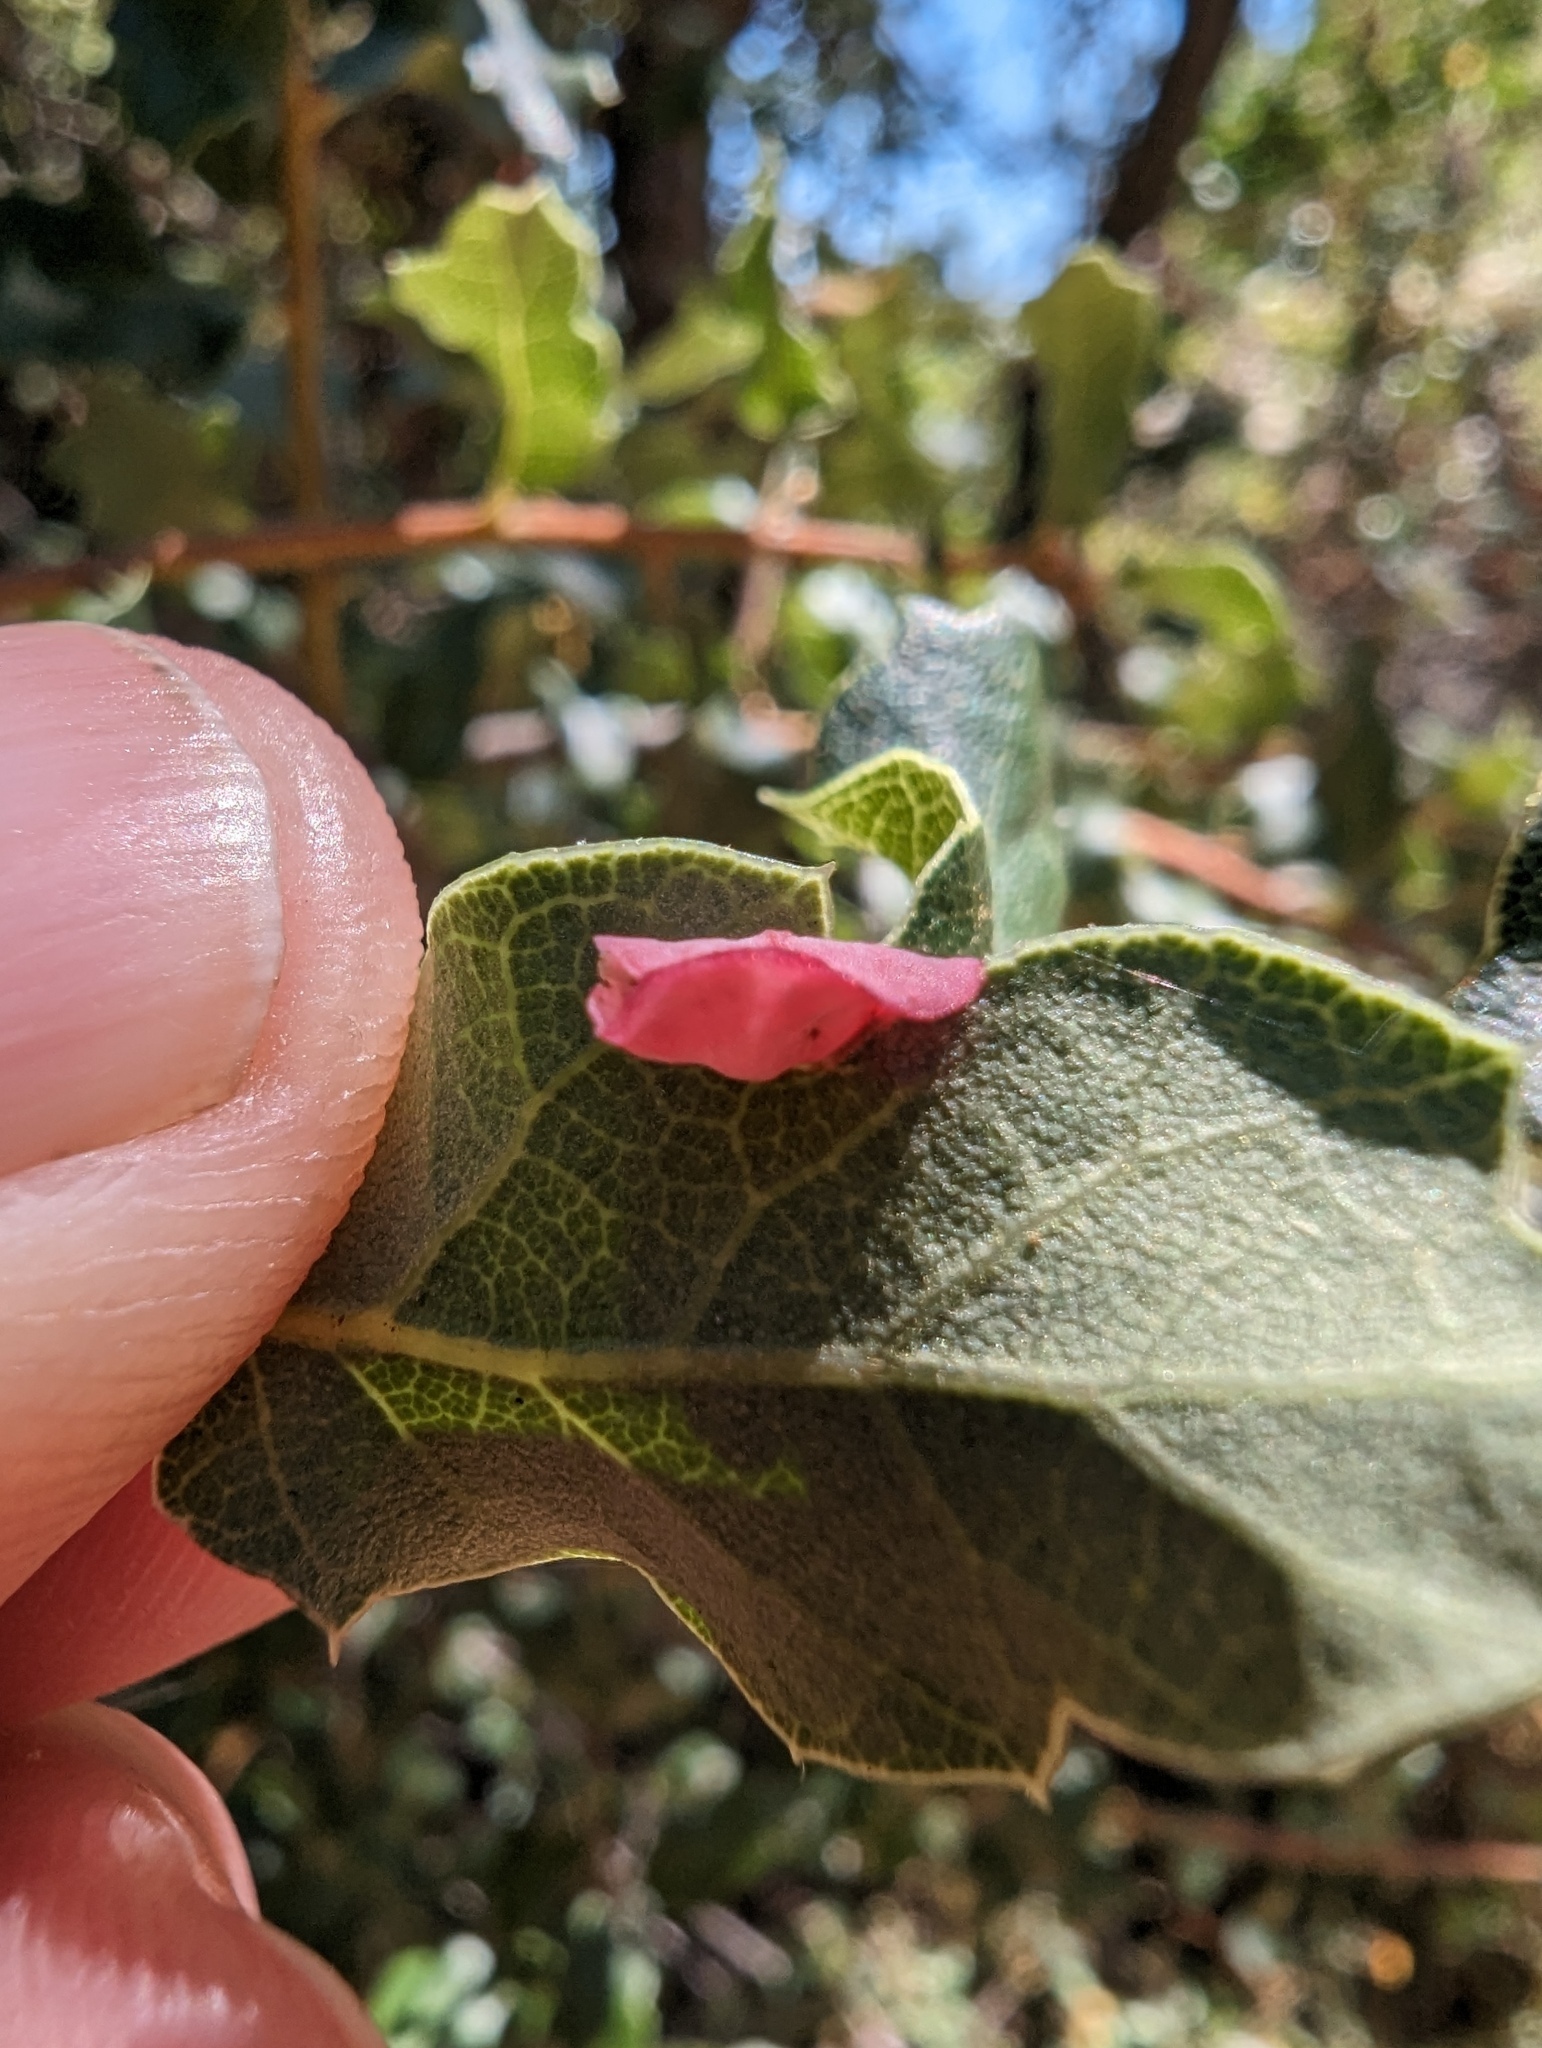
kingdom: Animalia
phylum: Arthropoda
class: Insecta
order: Hymenoptera
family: Cynipidae
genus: Andricus
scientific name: Andricus
